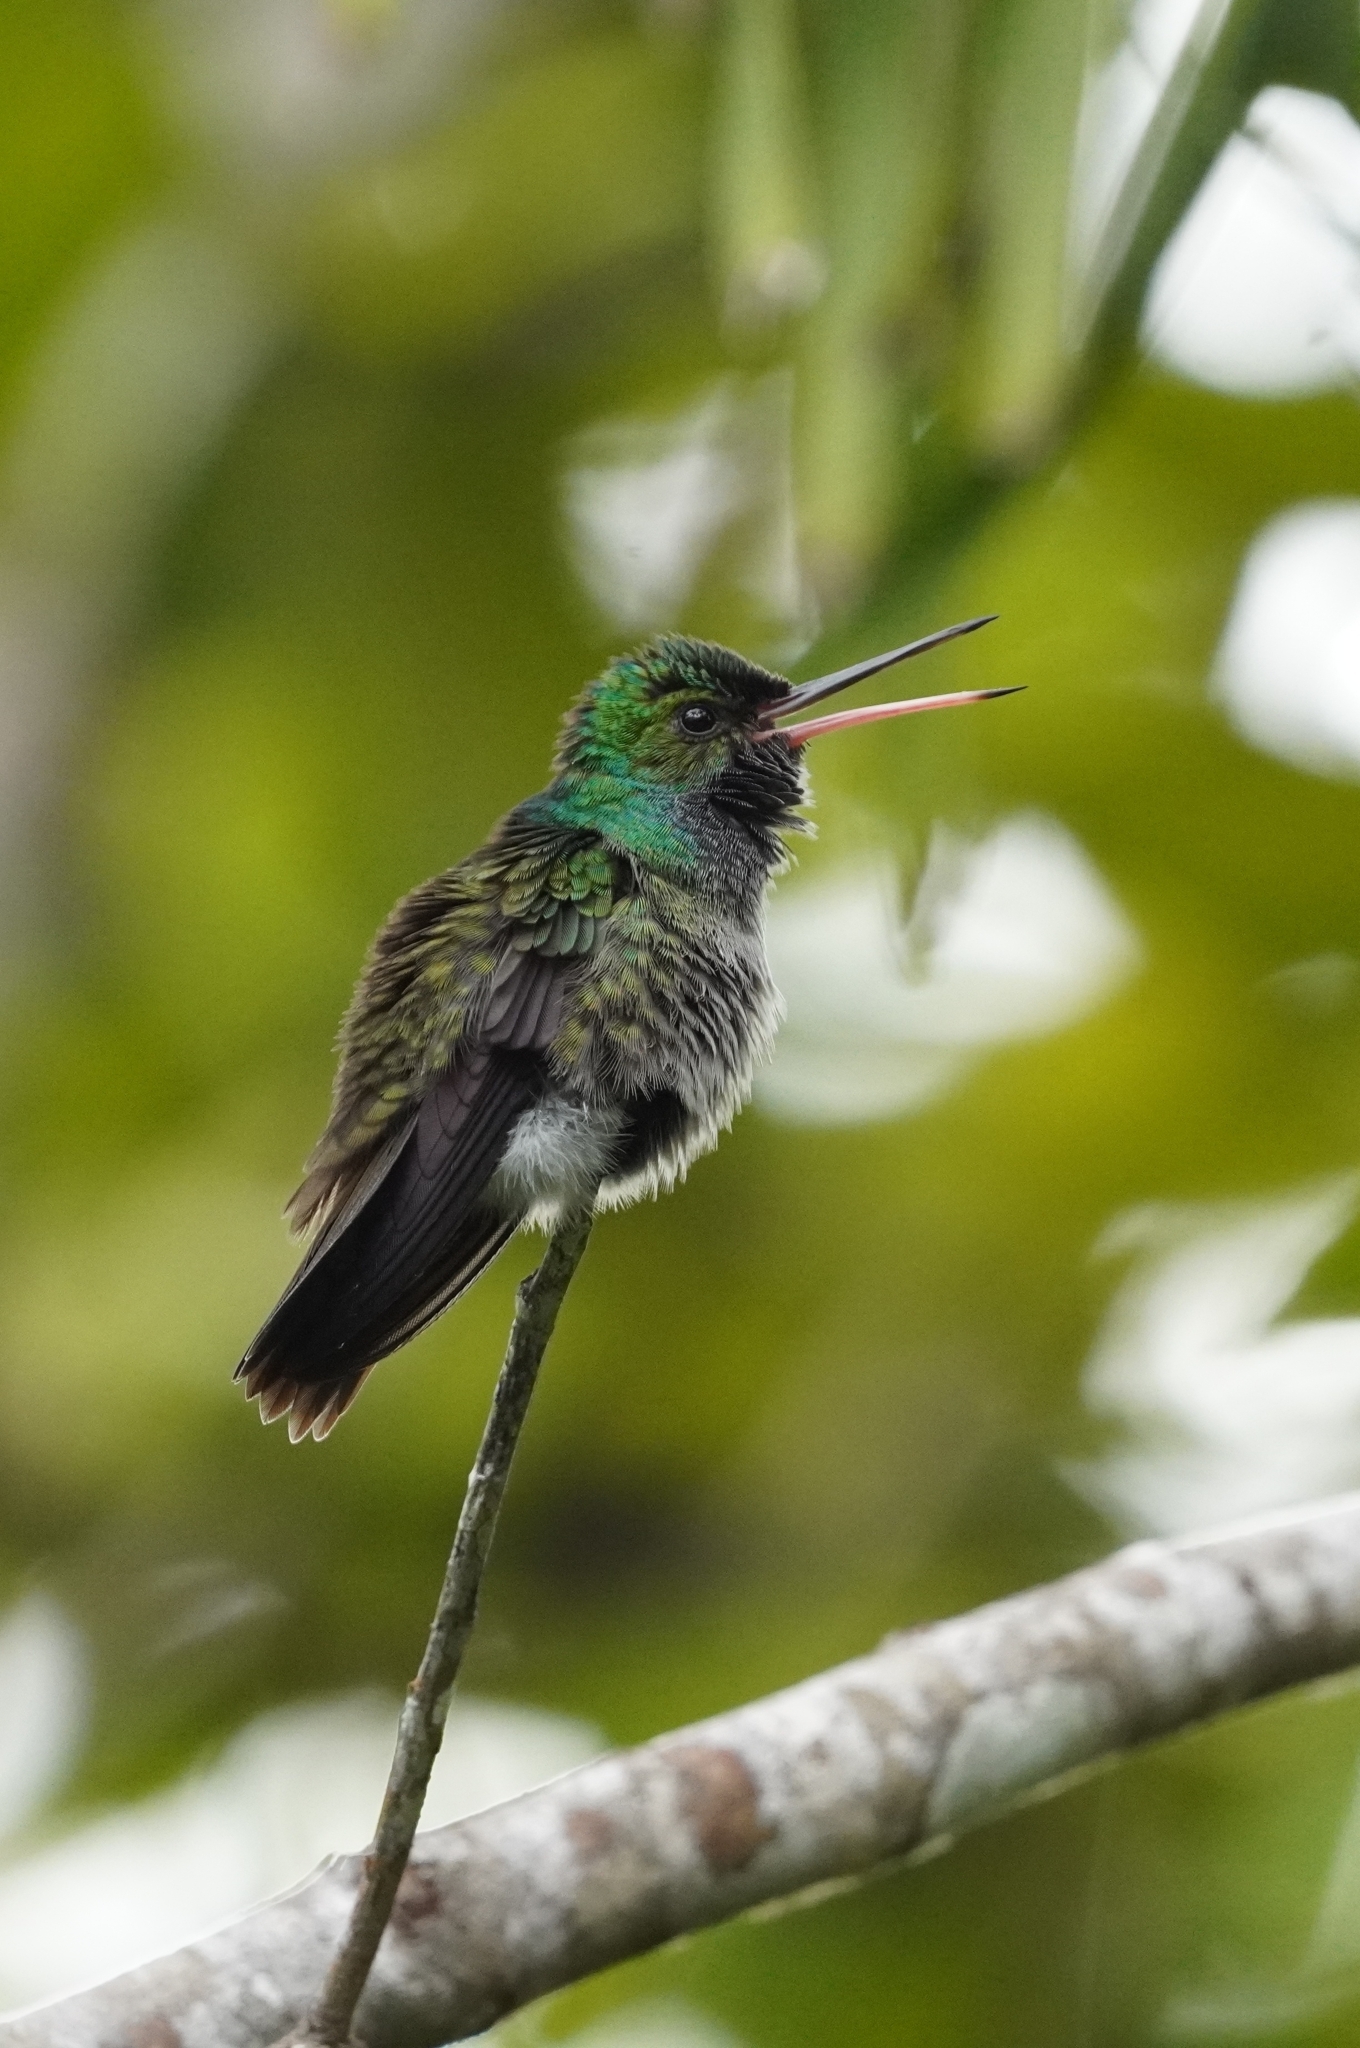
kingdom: Animalia
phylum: Chordata
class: Aves
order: Apodiformes
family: Trochilidae
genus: Polyerata
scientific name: Polyerata decora
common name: Charming hummingbird
